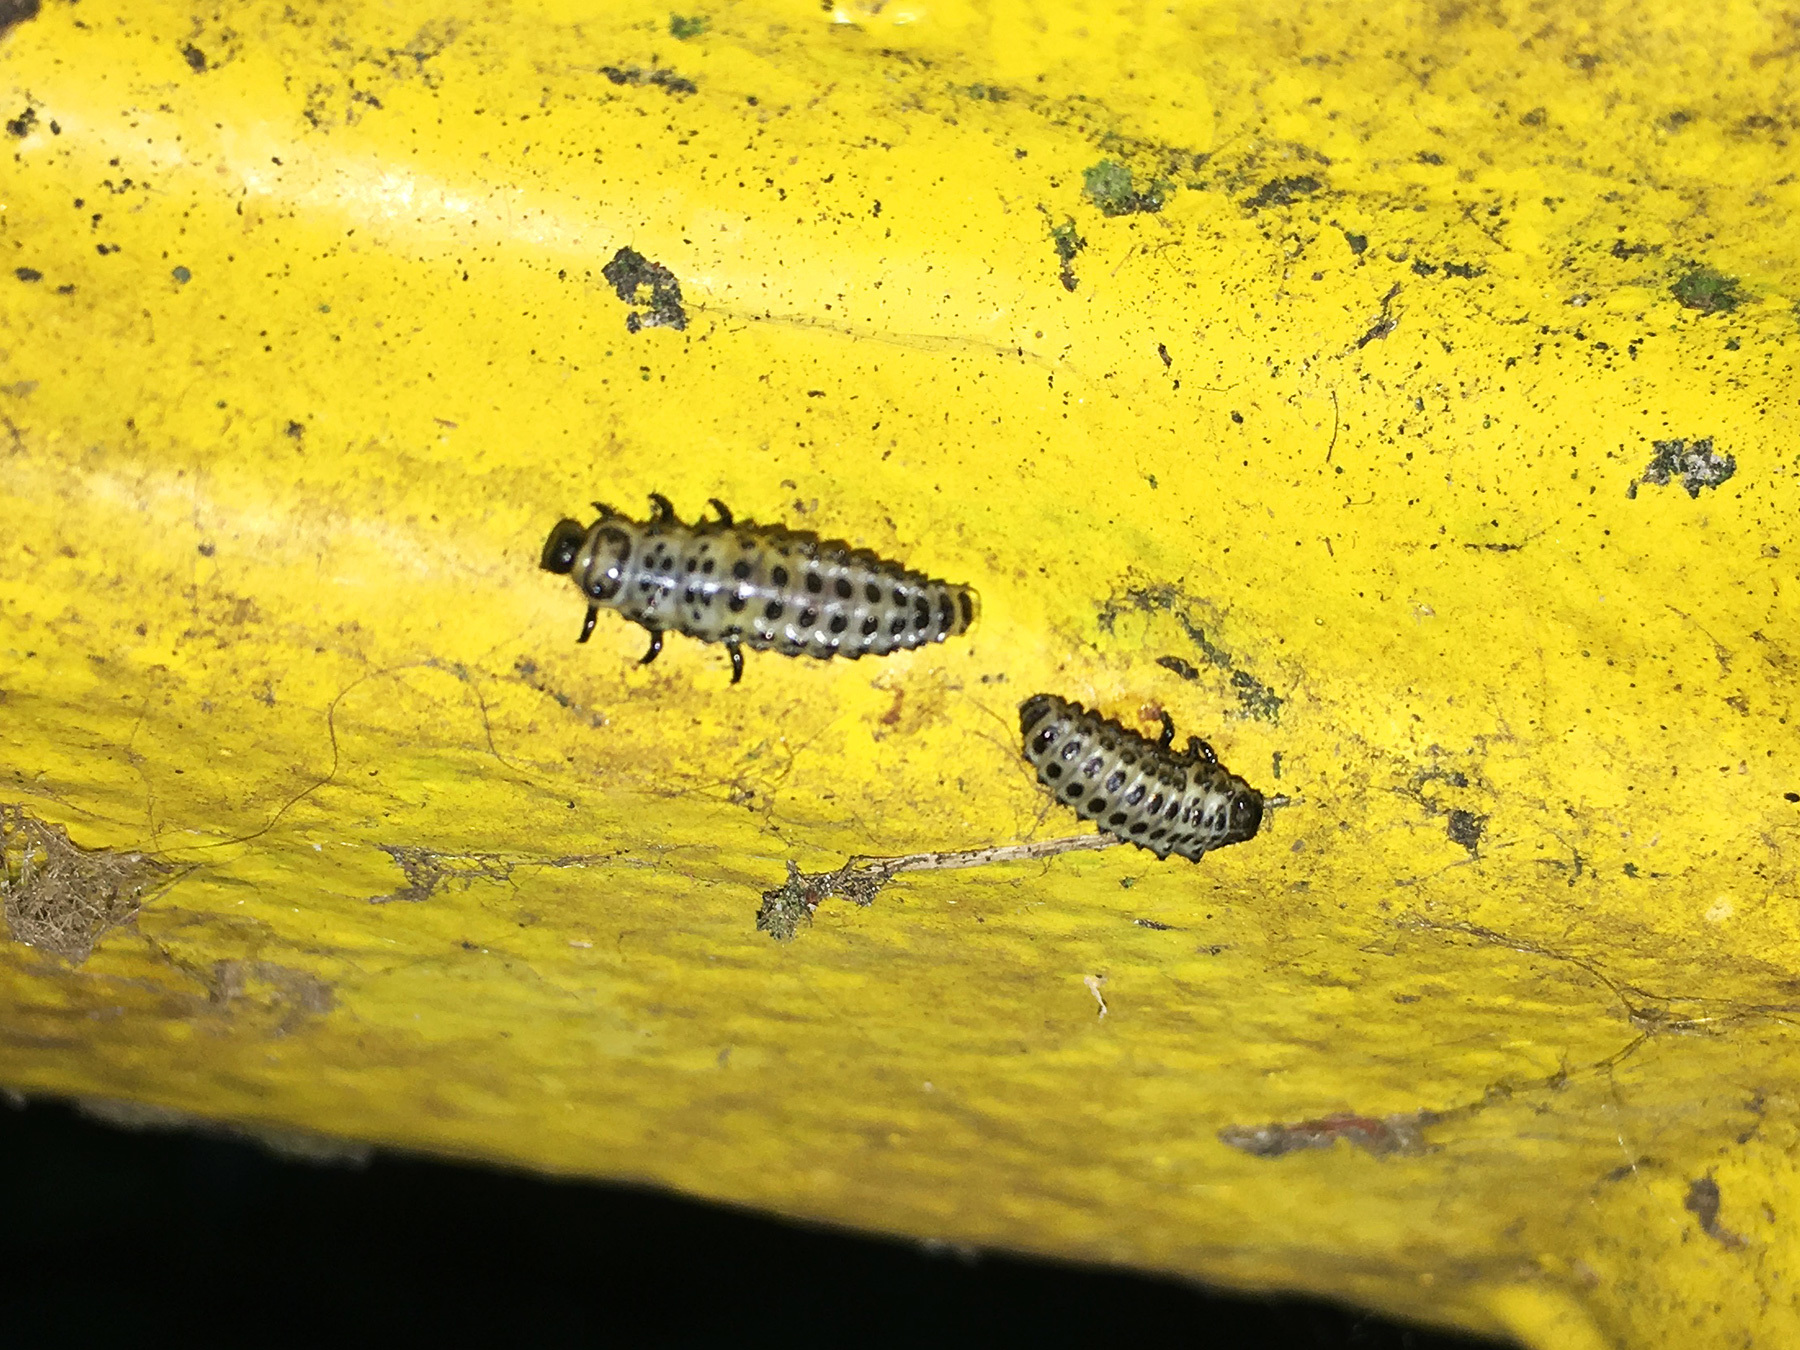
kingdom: Animalia
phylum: Arthropoda
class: Insecta
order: Coleoptera
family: Chrysomelidae
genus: Chrysomela
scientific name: Chrysomela vigintipunctata
